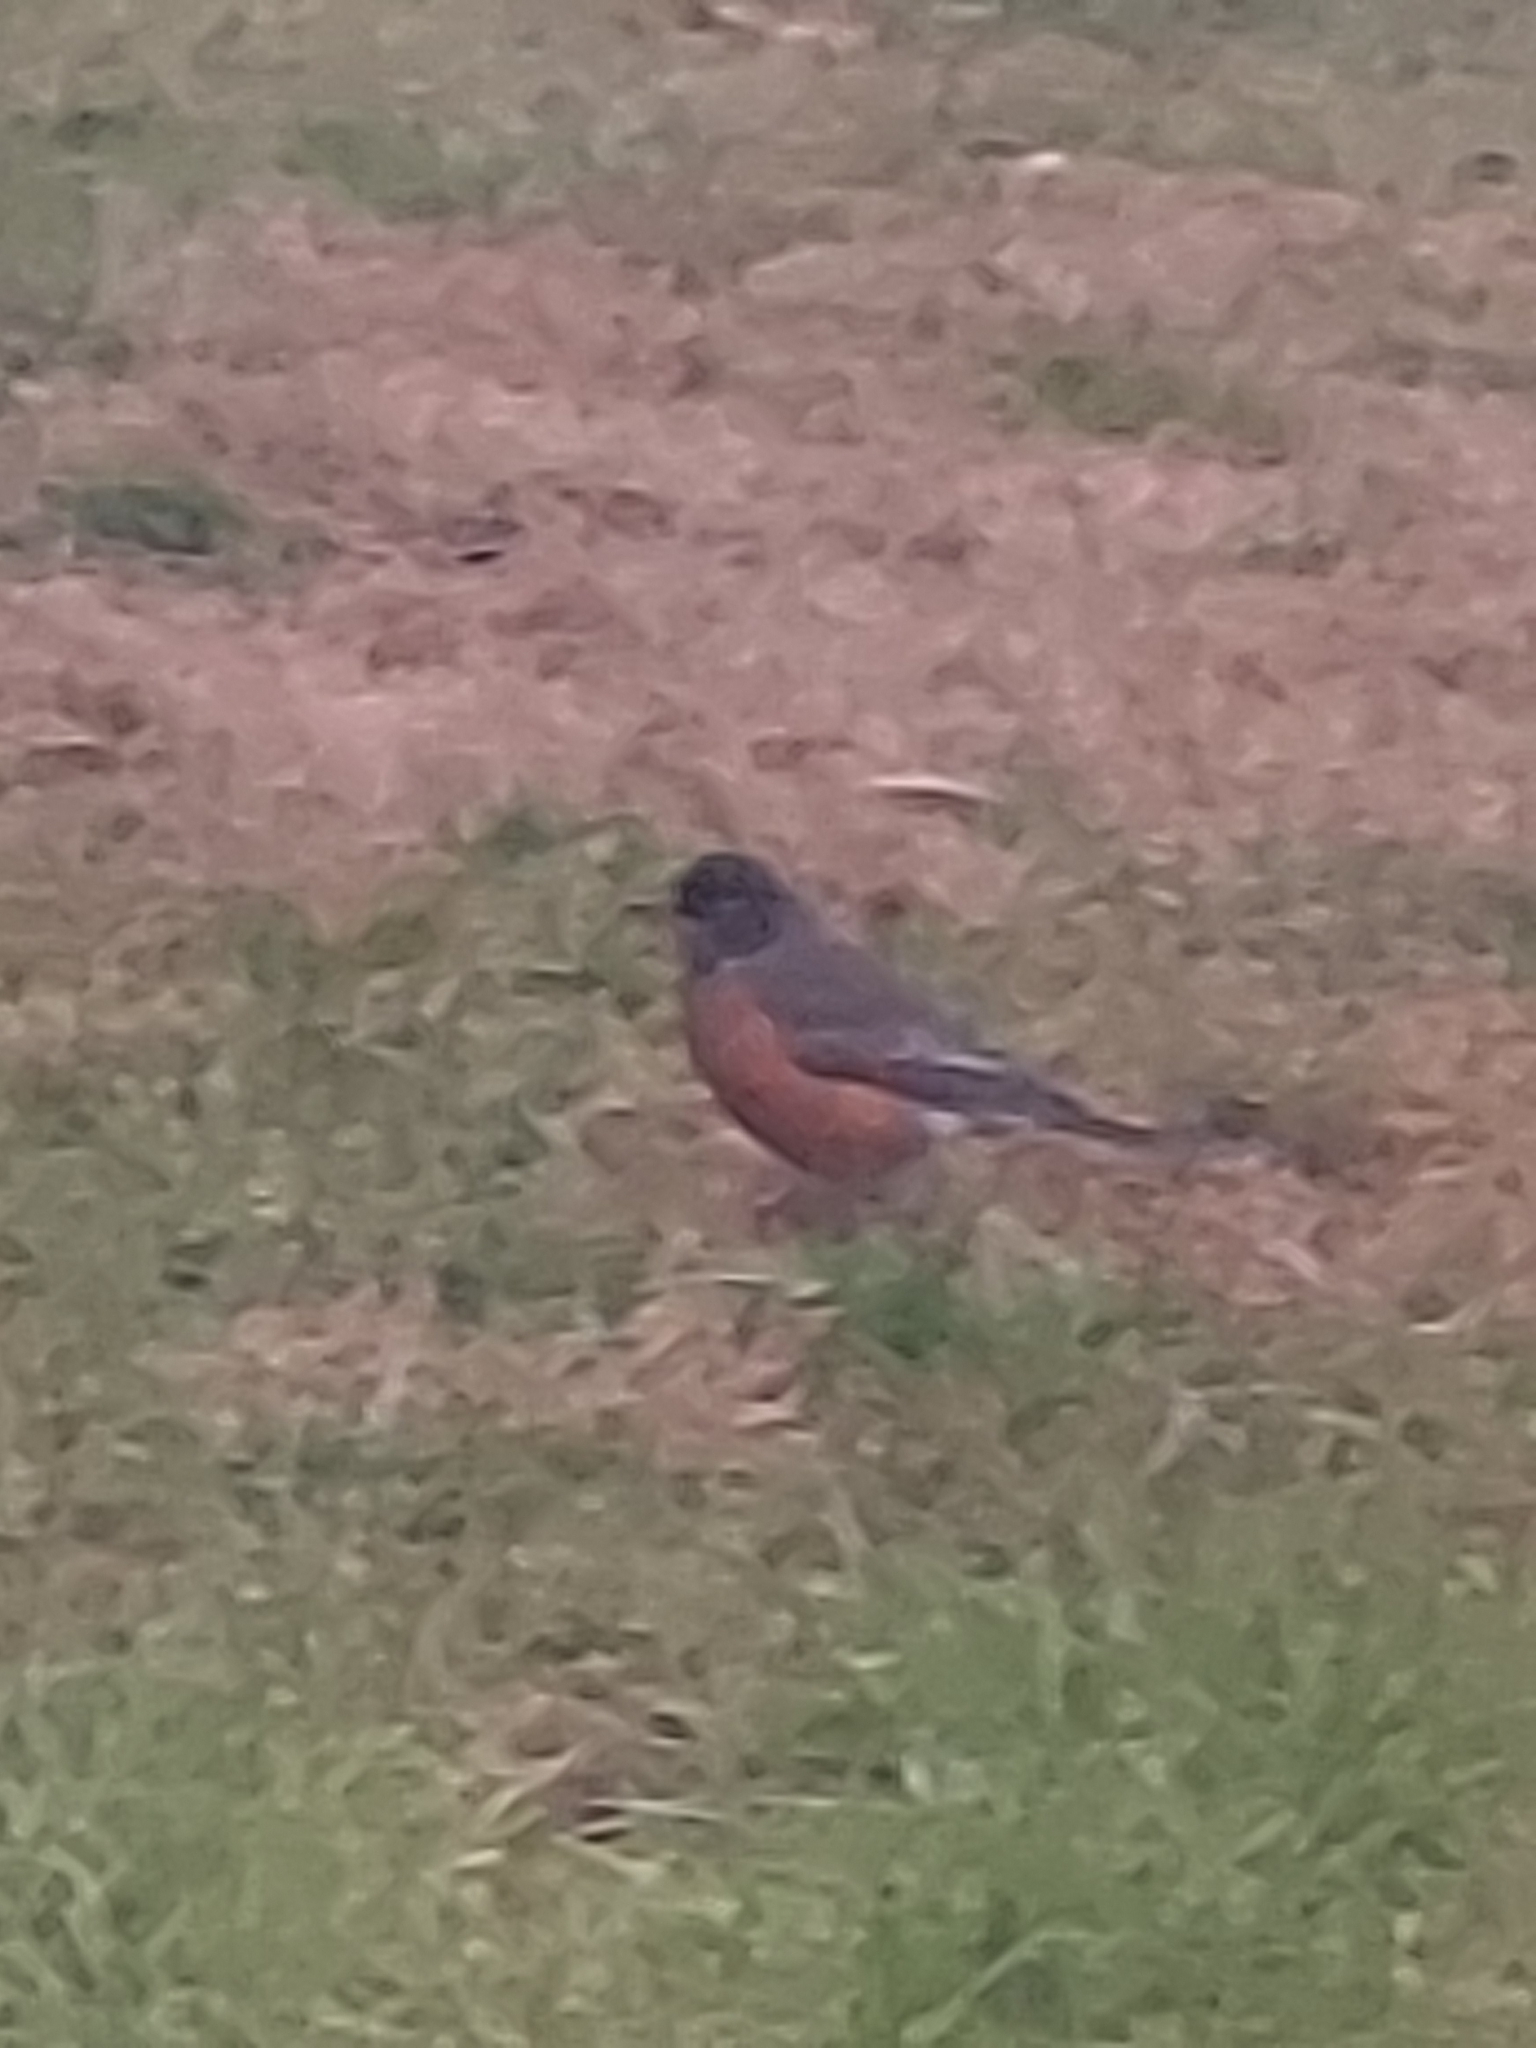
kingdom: Animalia
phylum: Chordata
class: Aves
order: Passeriformes
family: Turdidae
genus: Turdus
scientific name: Turdus migratorius
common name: American robin
